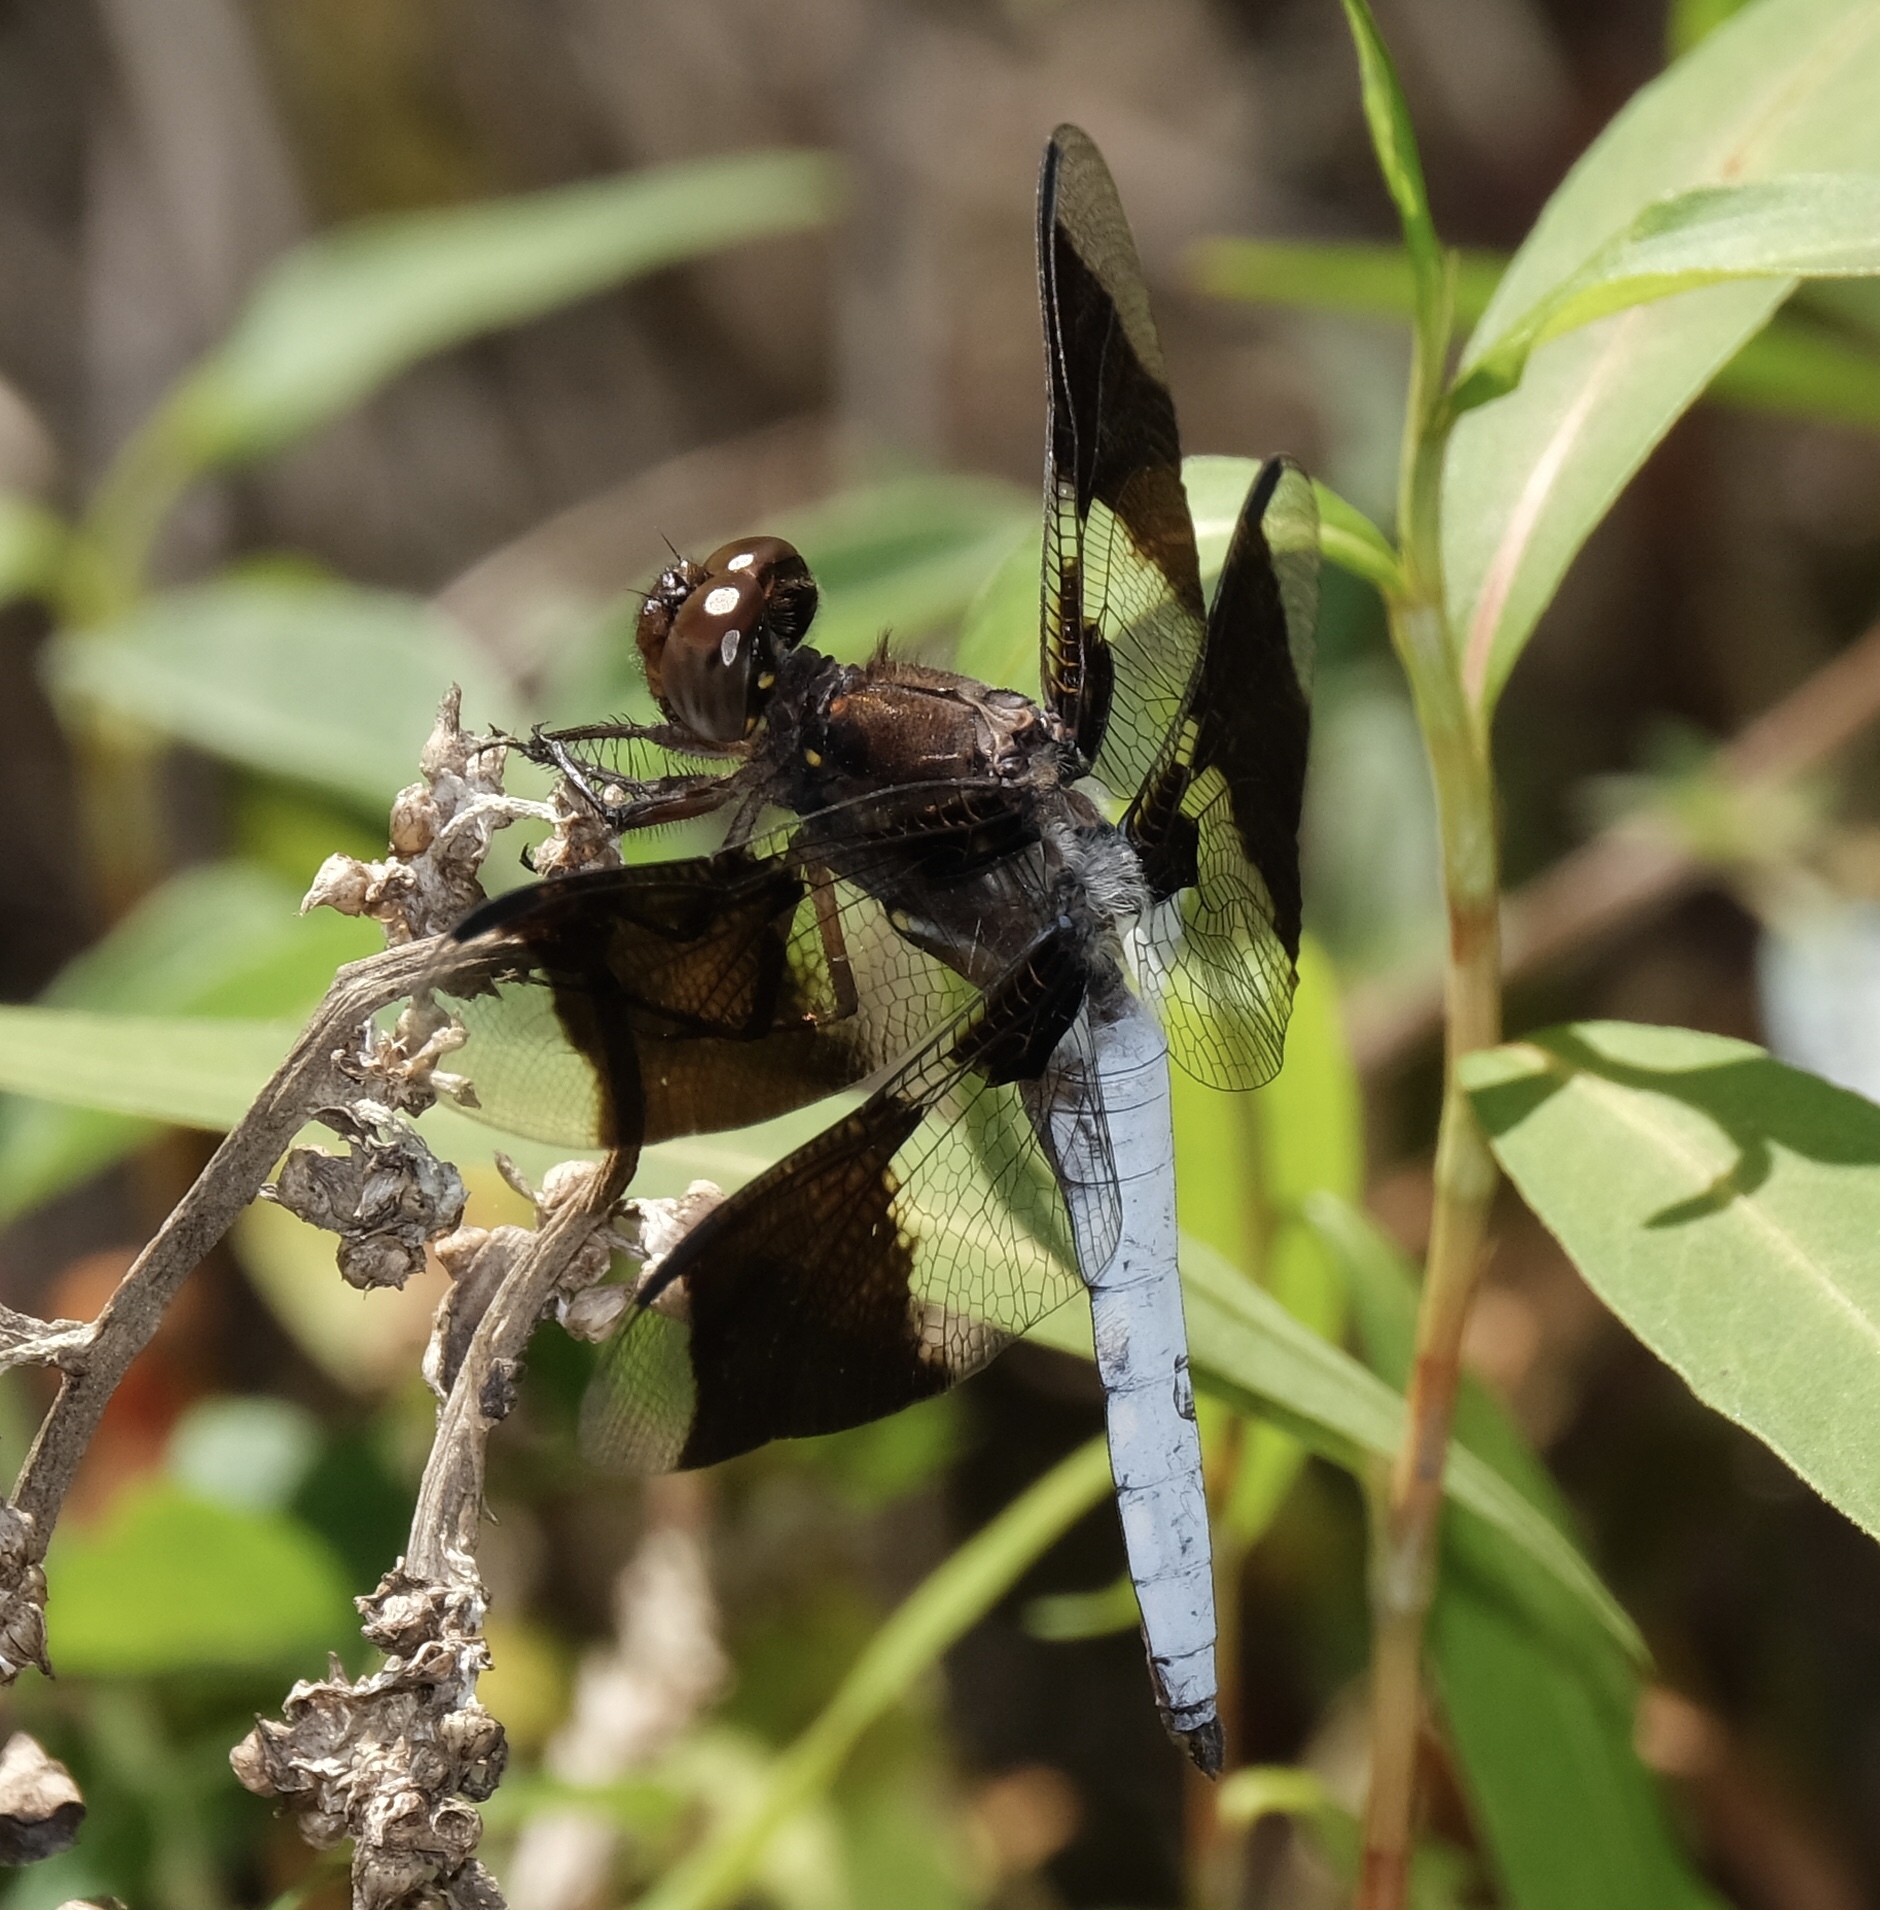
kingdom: Animalia
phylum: Arthropoda
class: Insecta
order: Odonata
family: Libellulidae
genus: Plathemis
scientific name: Plathemis lydia
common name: Common whitetail
